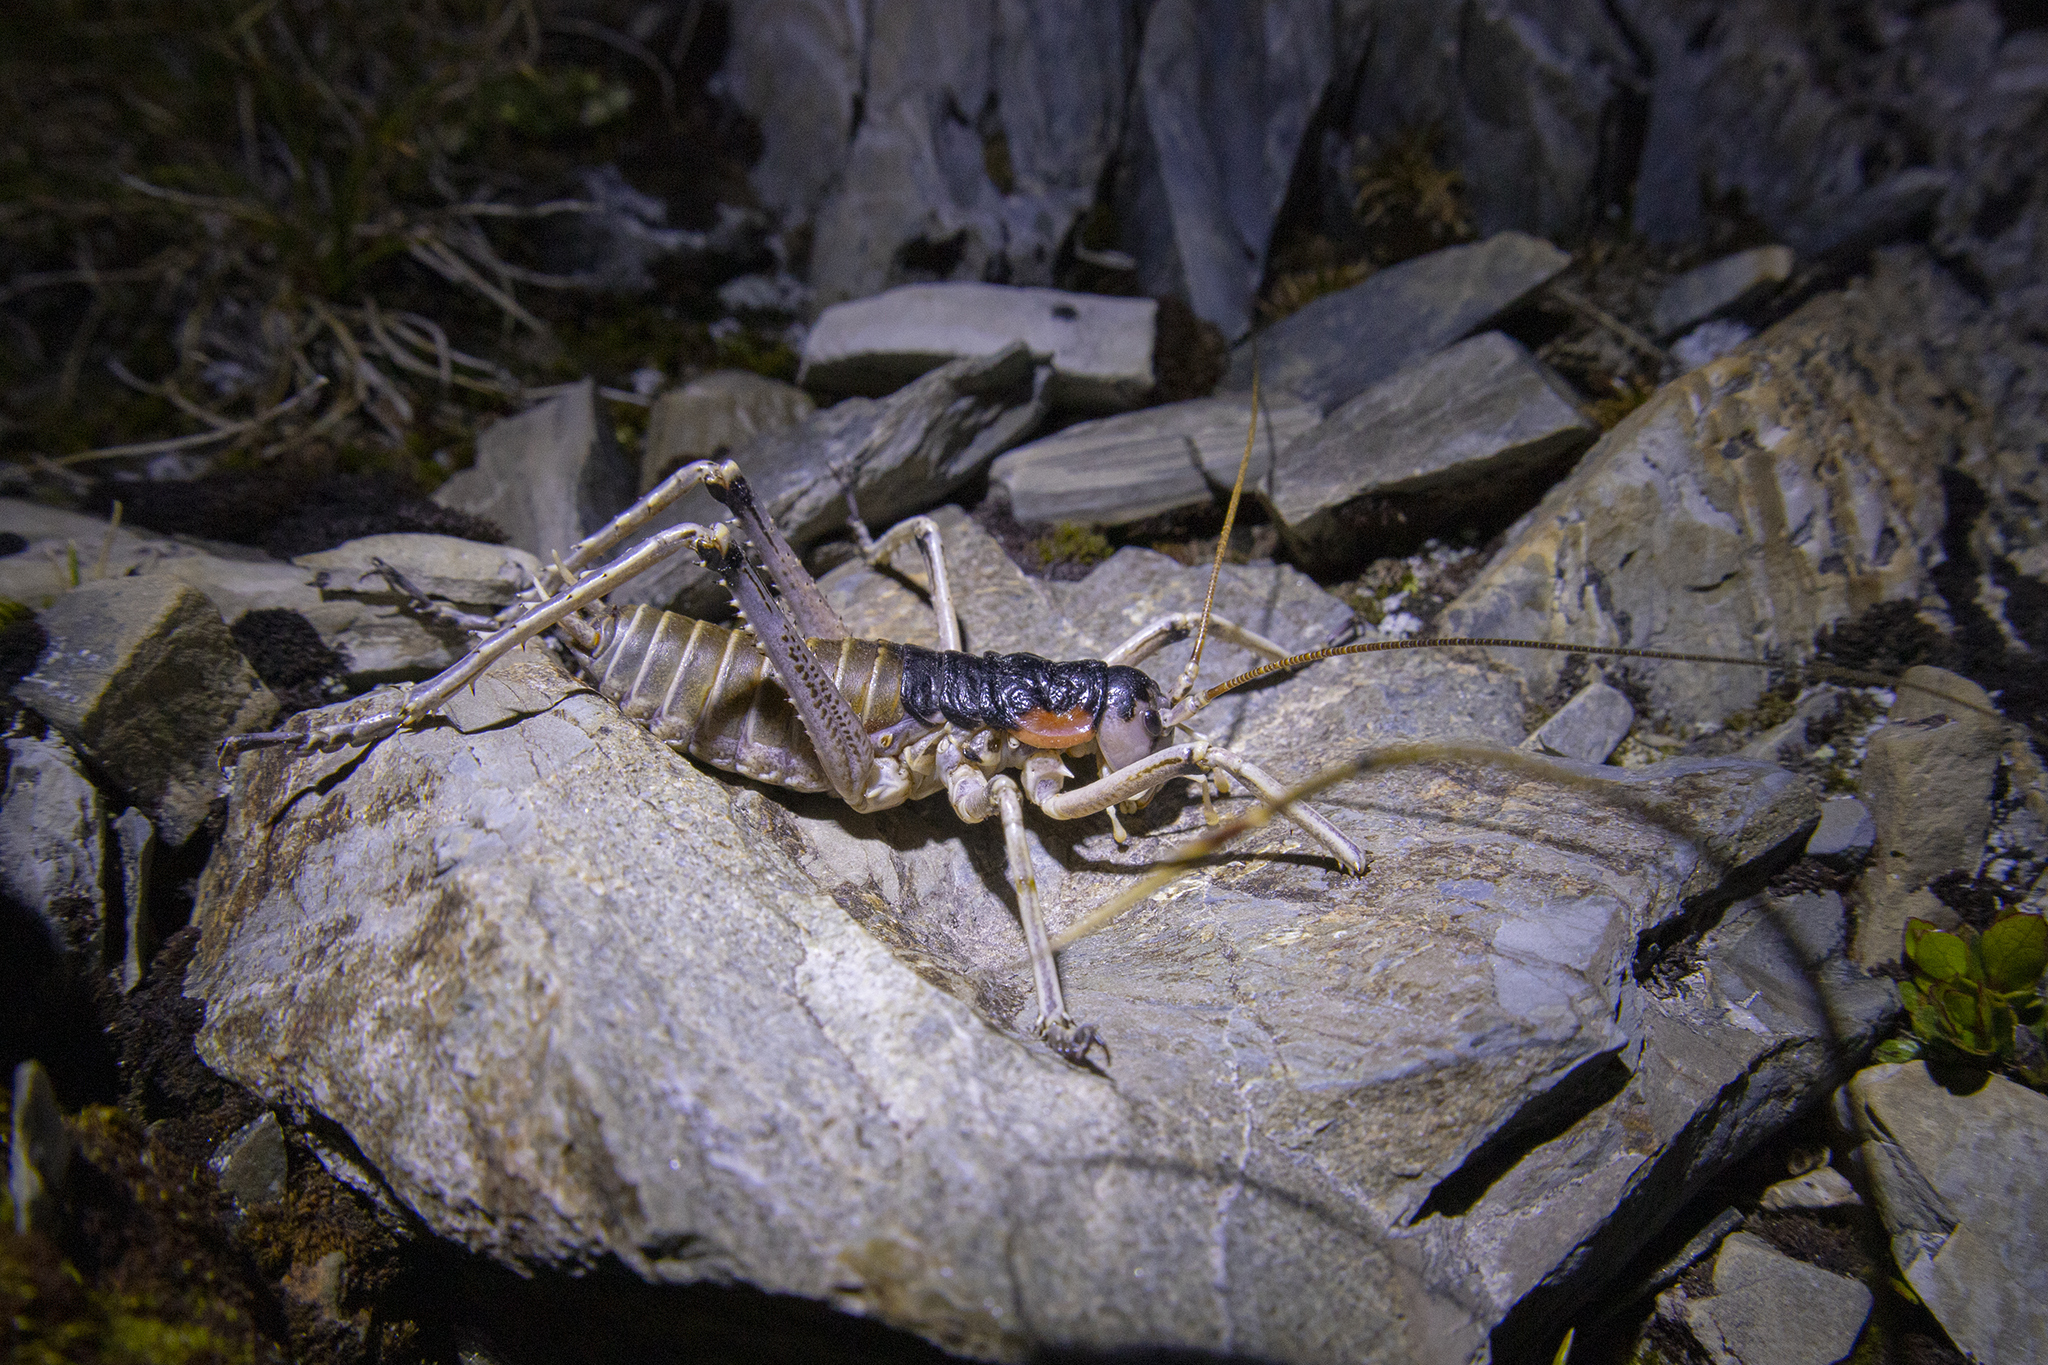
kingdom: Animalia
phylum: Arthropoda
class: Insecta
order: Orthoptera
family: Anostostomatidae
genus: Deinacrida
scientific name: Deinacrida connectens
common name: Scree weta
